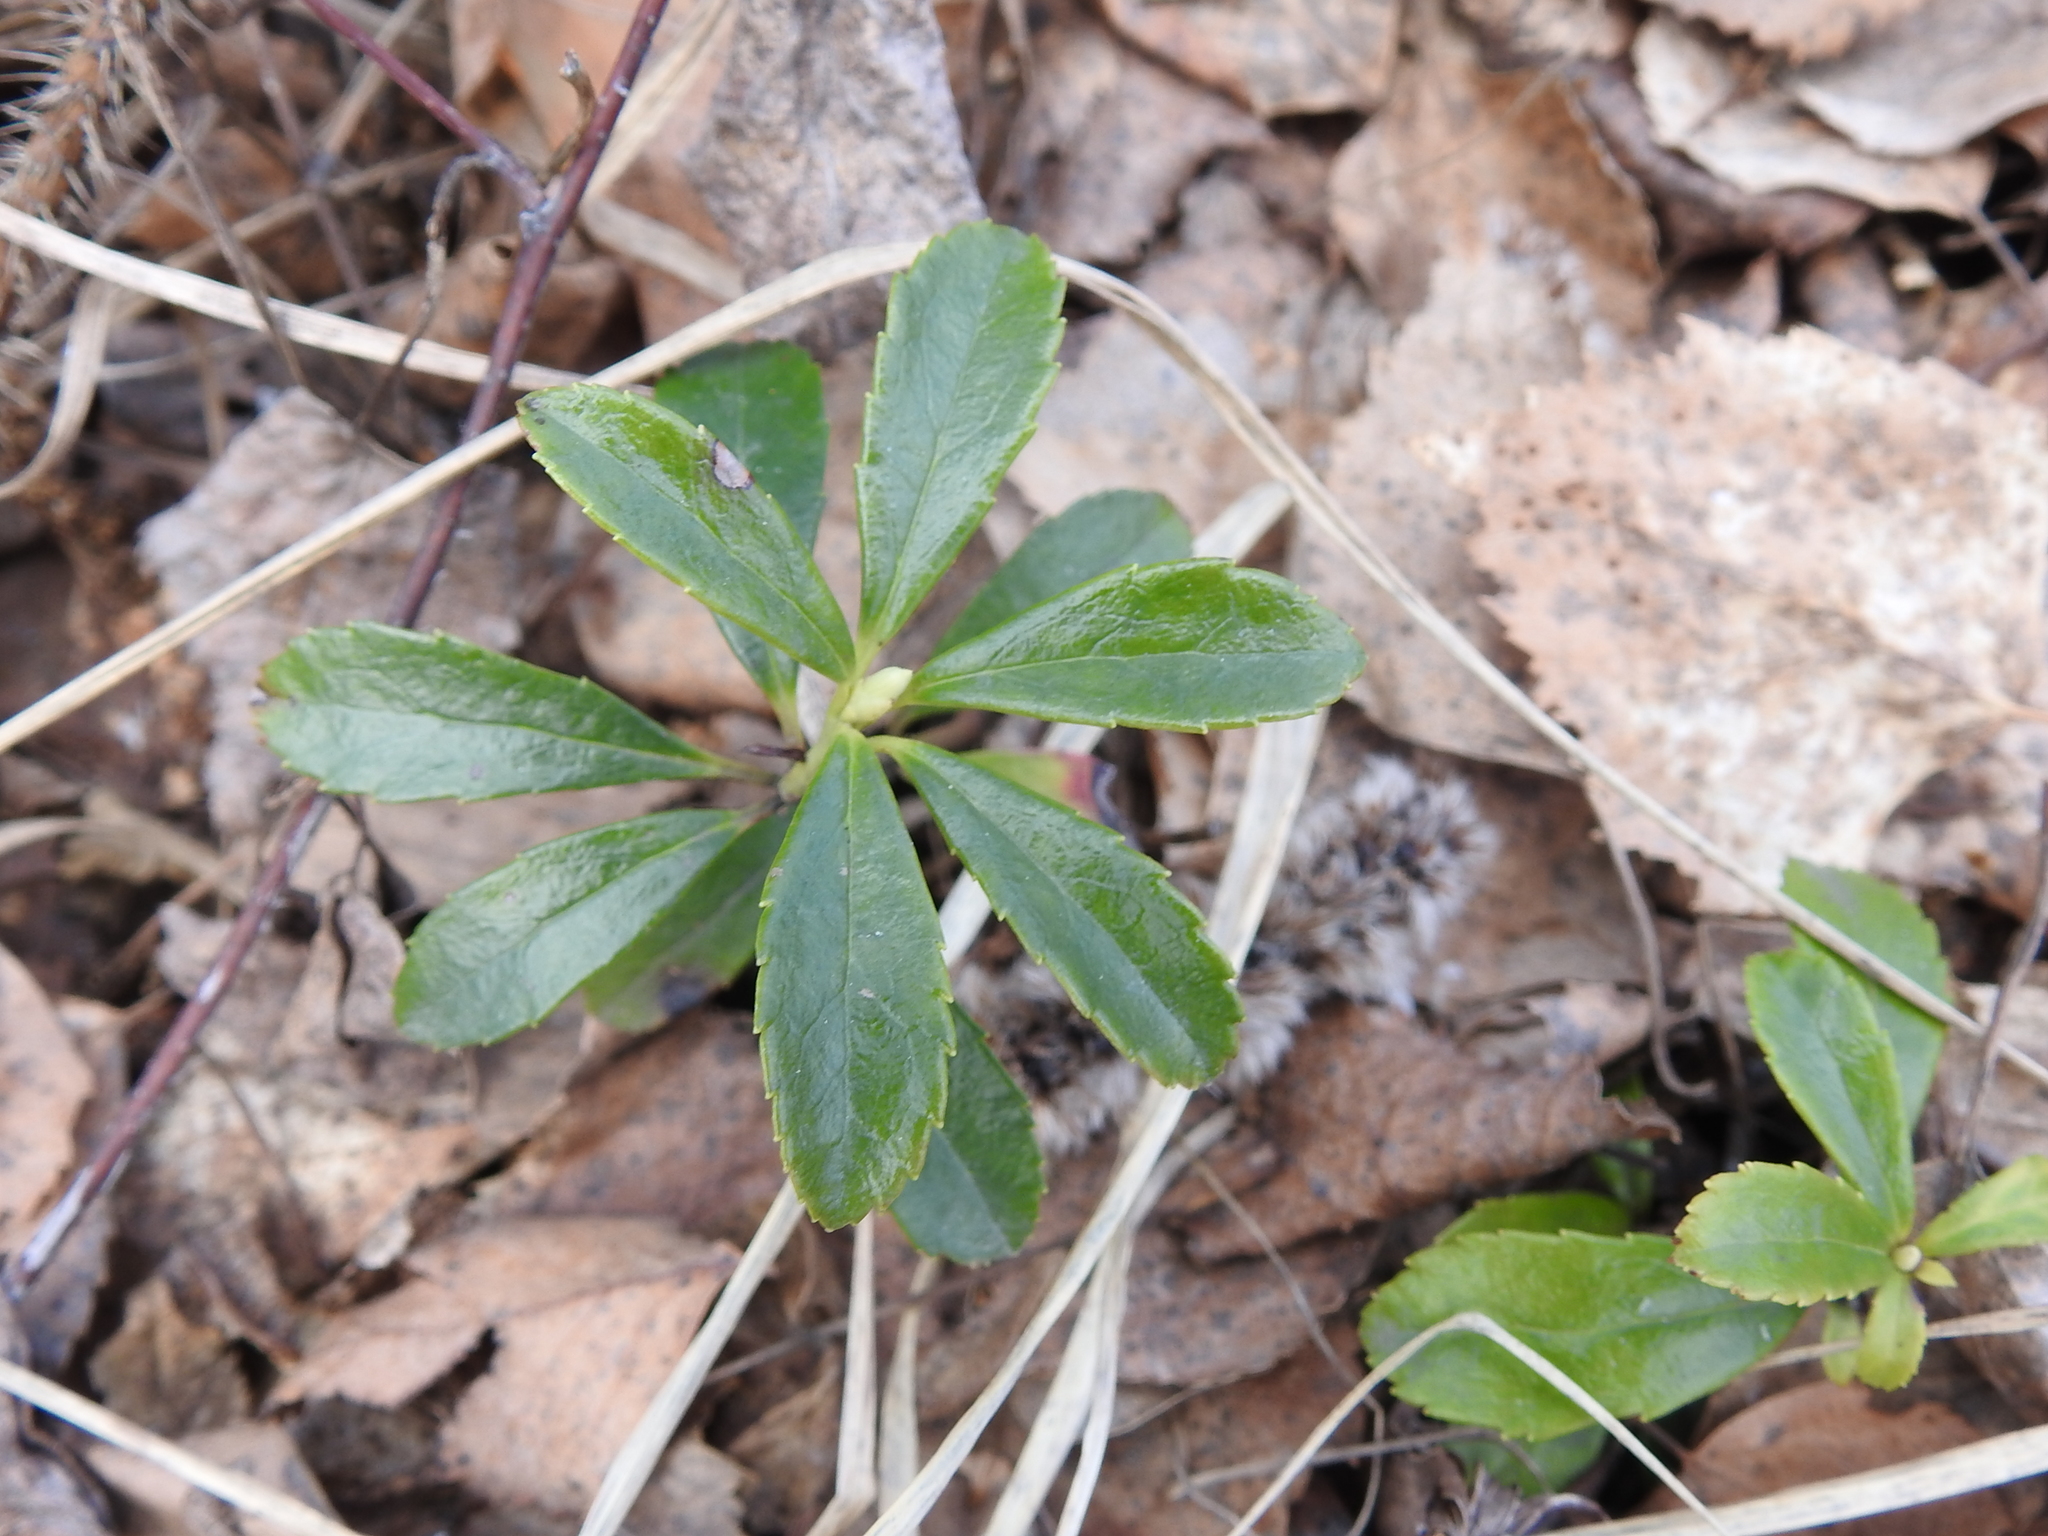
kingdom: Plantae
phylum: Tracheophyta
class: Magnoliopsida
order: Ericales
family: Ericaceae
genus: Chimaphila
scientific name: Chimaphila umbellata
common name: Pipsissewa
